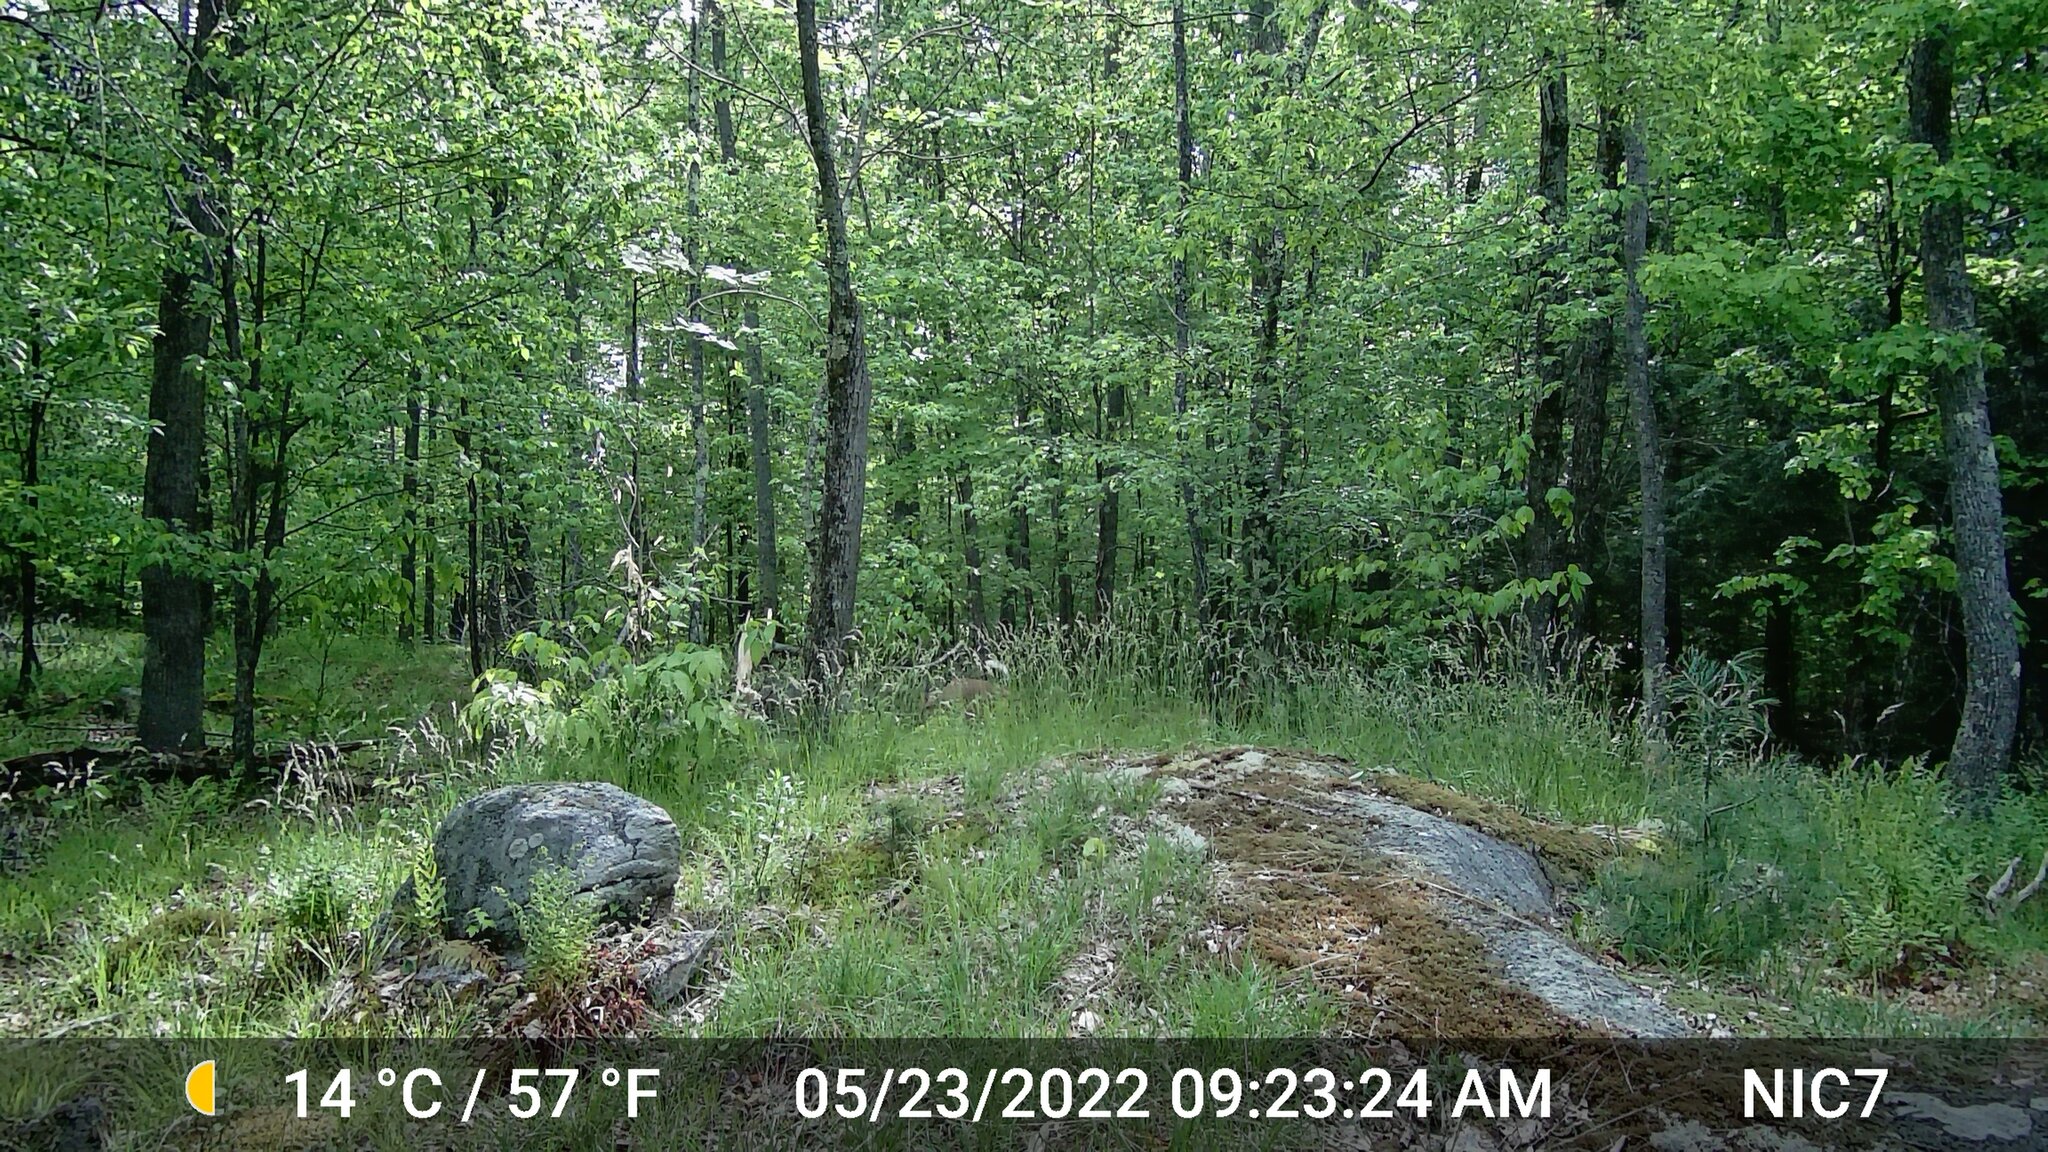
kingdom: Animalia
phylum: Chordata
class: Mammalia
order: Artiodactyla
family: Cervidae
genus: Odocoileus
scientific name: Odocoileus virginianus
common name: White-tailed deer
